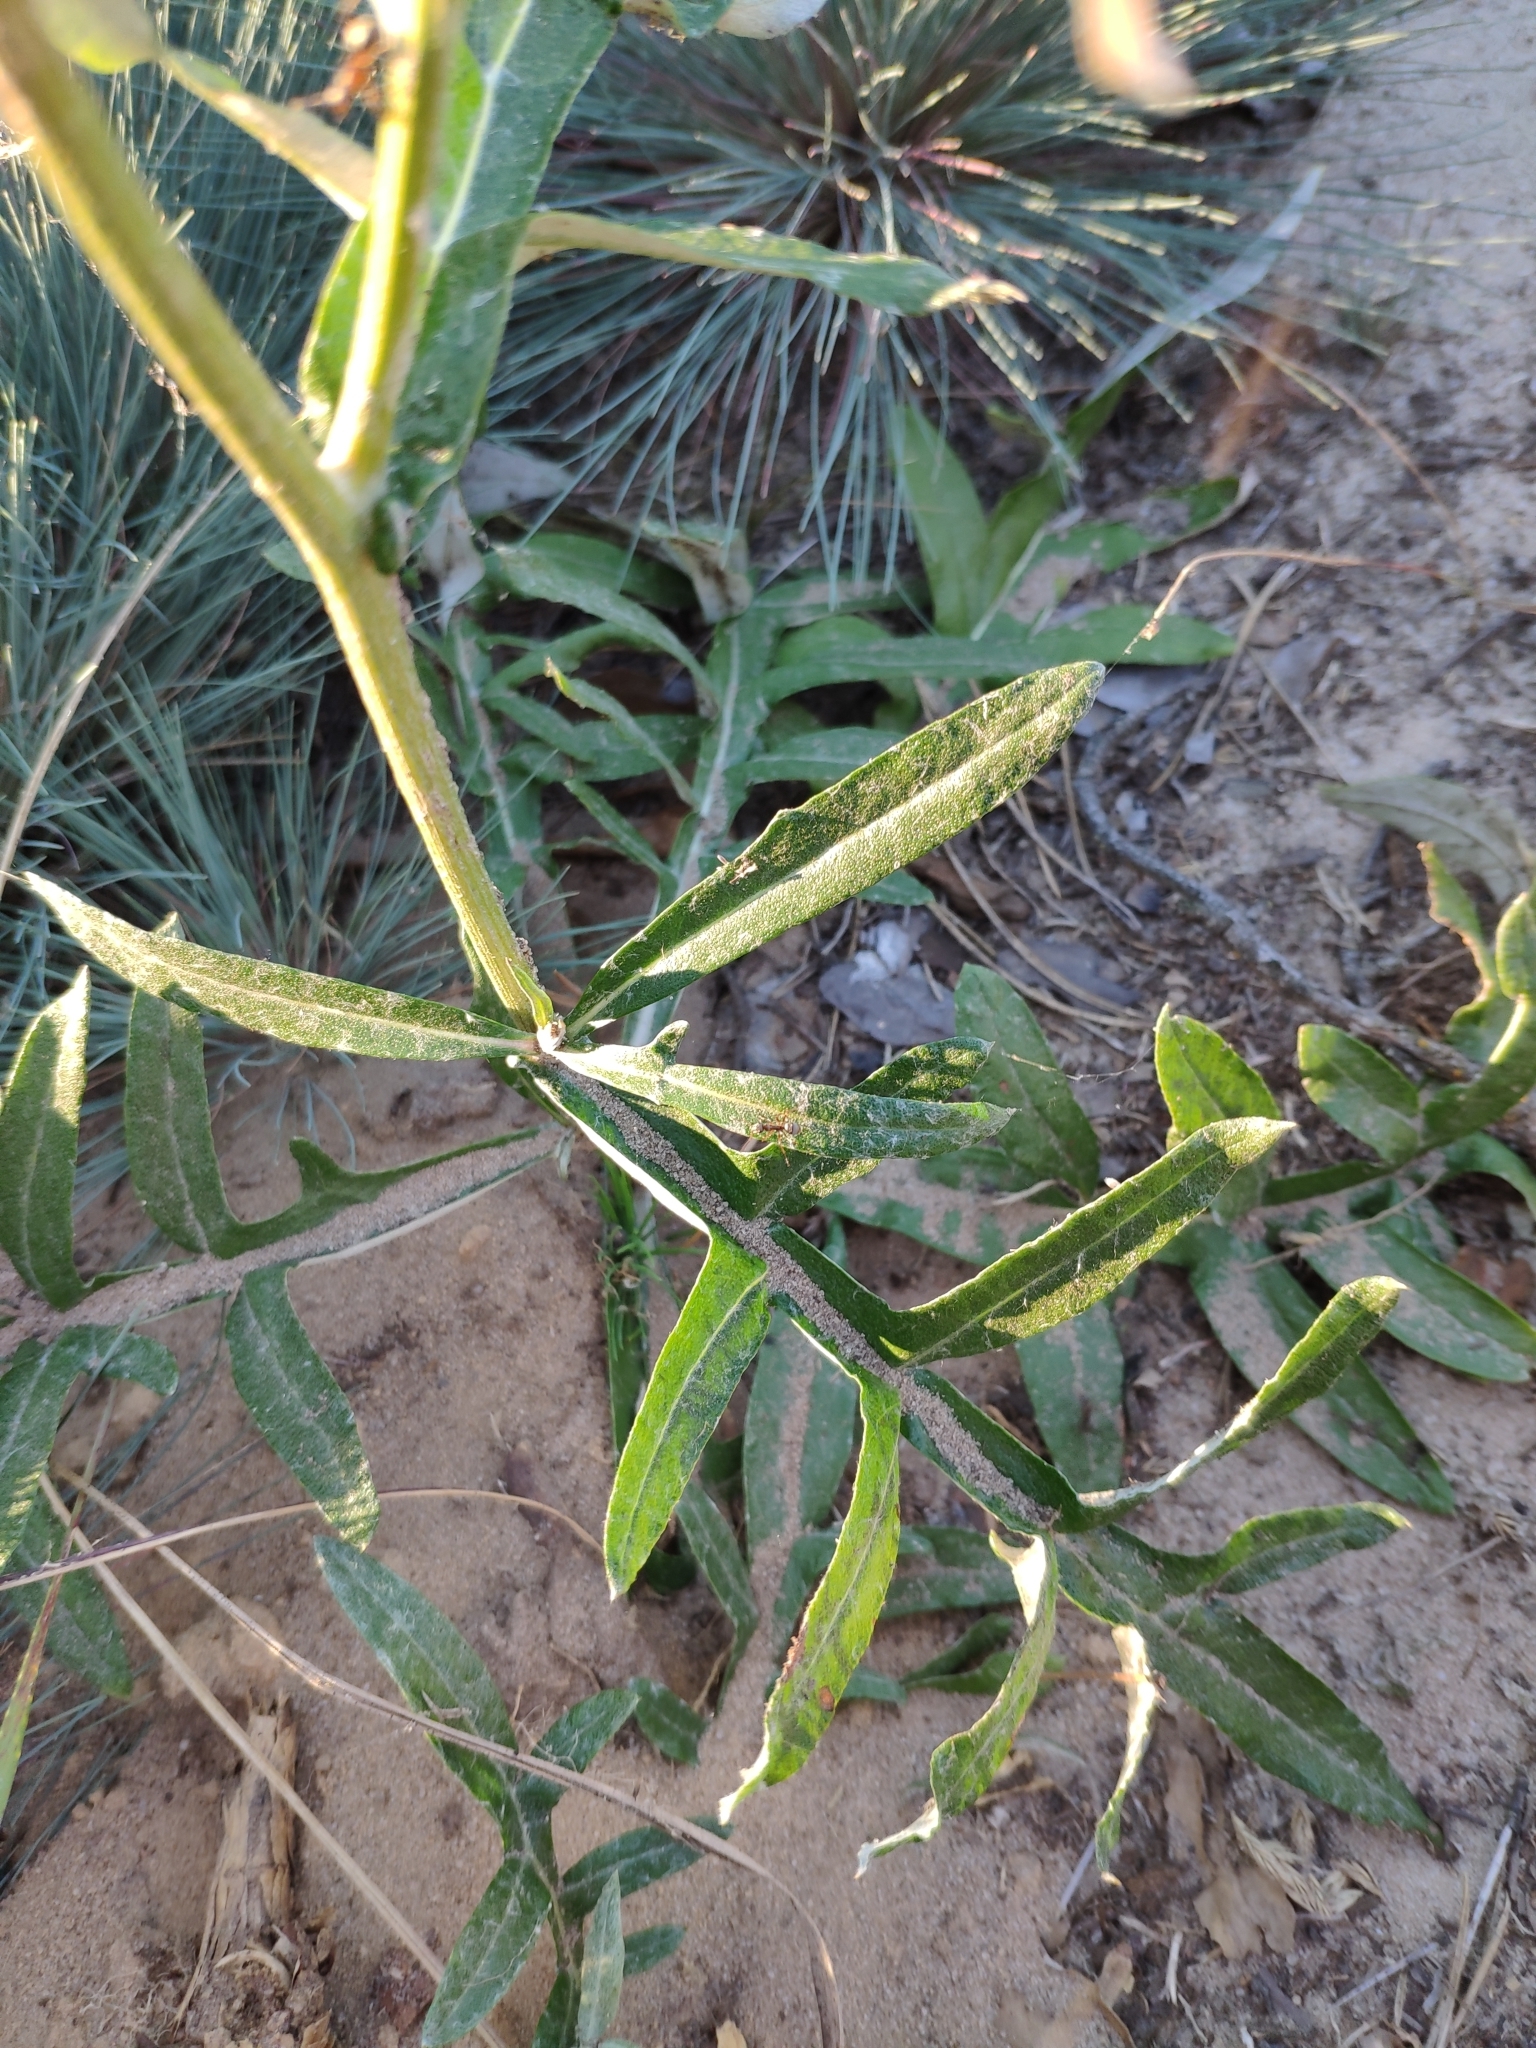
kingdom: Plantae
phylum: Tracheophyta
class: Magnoliopsida
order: Asterales
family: Asteraceae
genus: Jurinea
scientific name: Jurinea cyanoides
